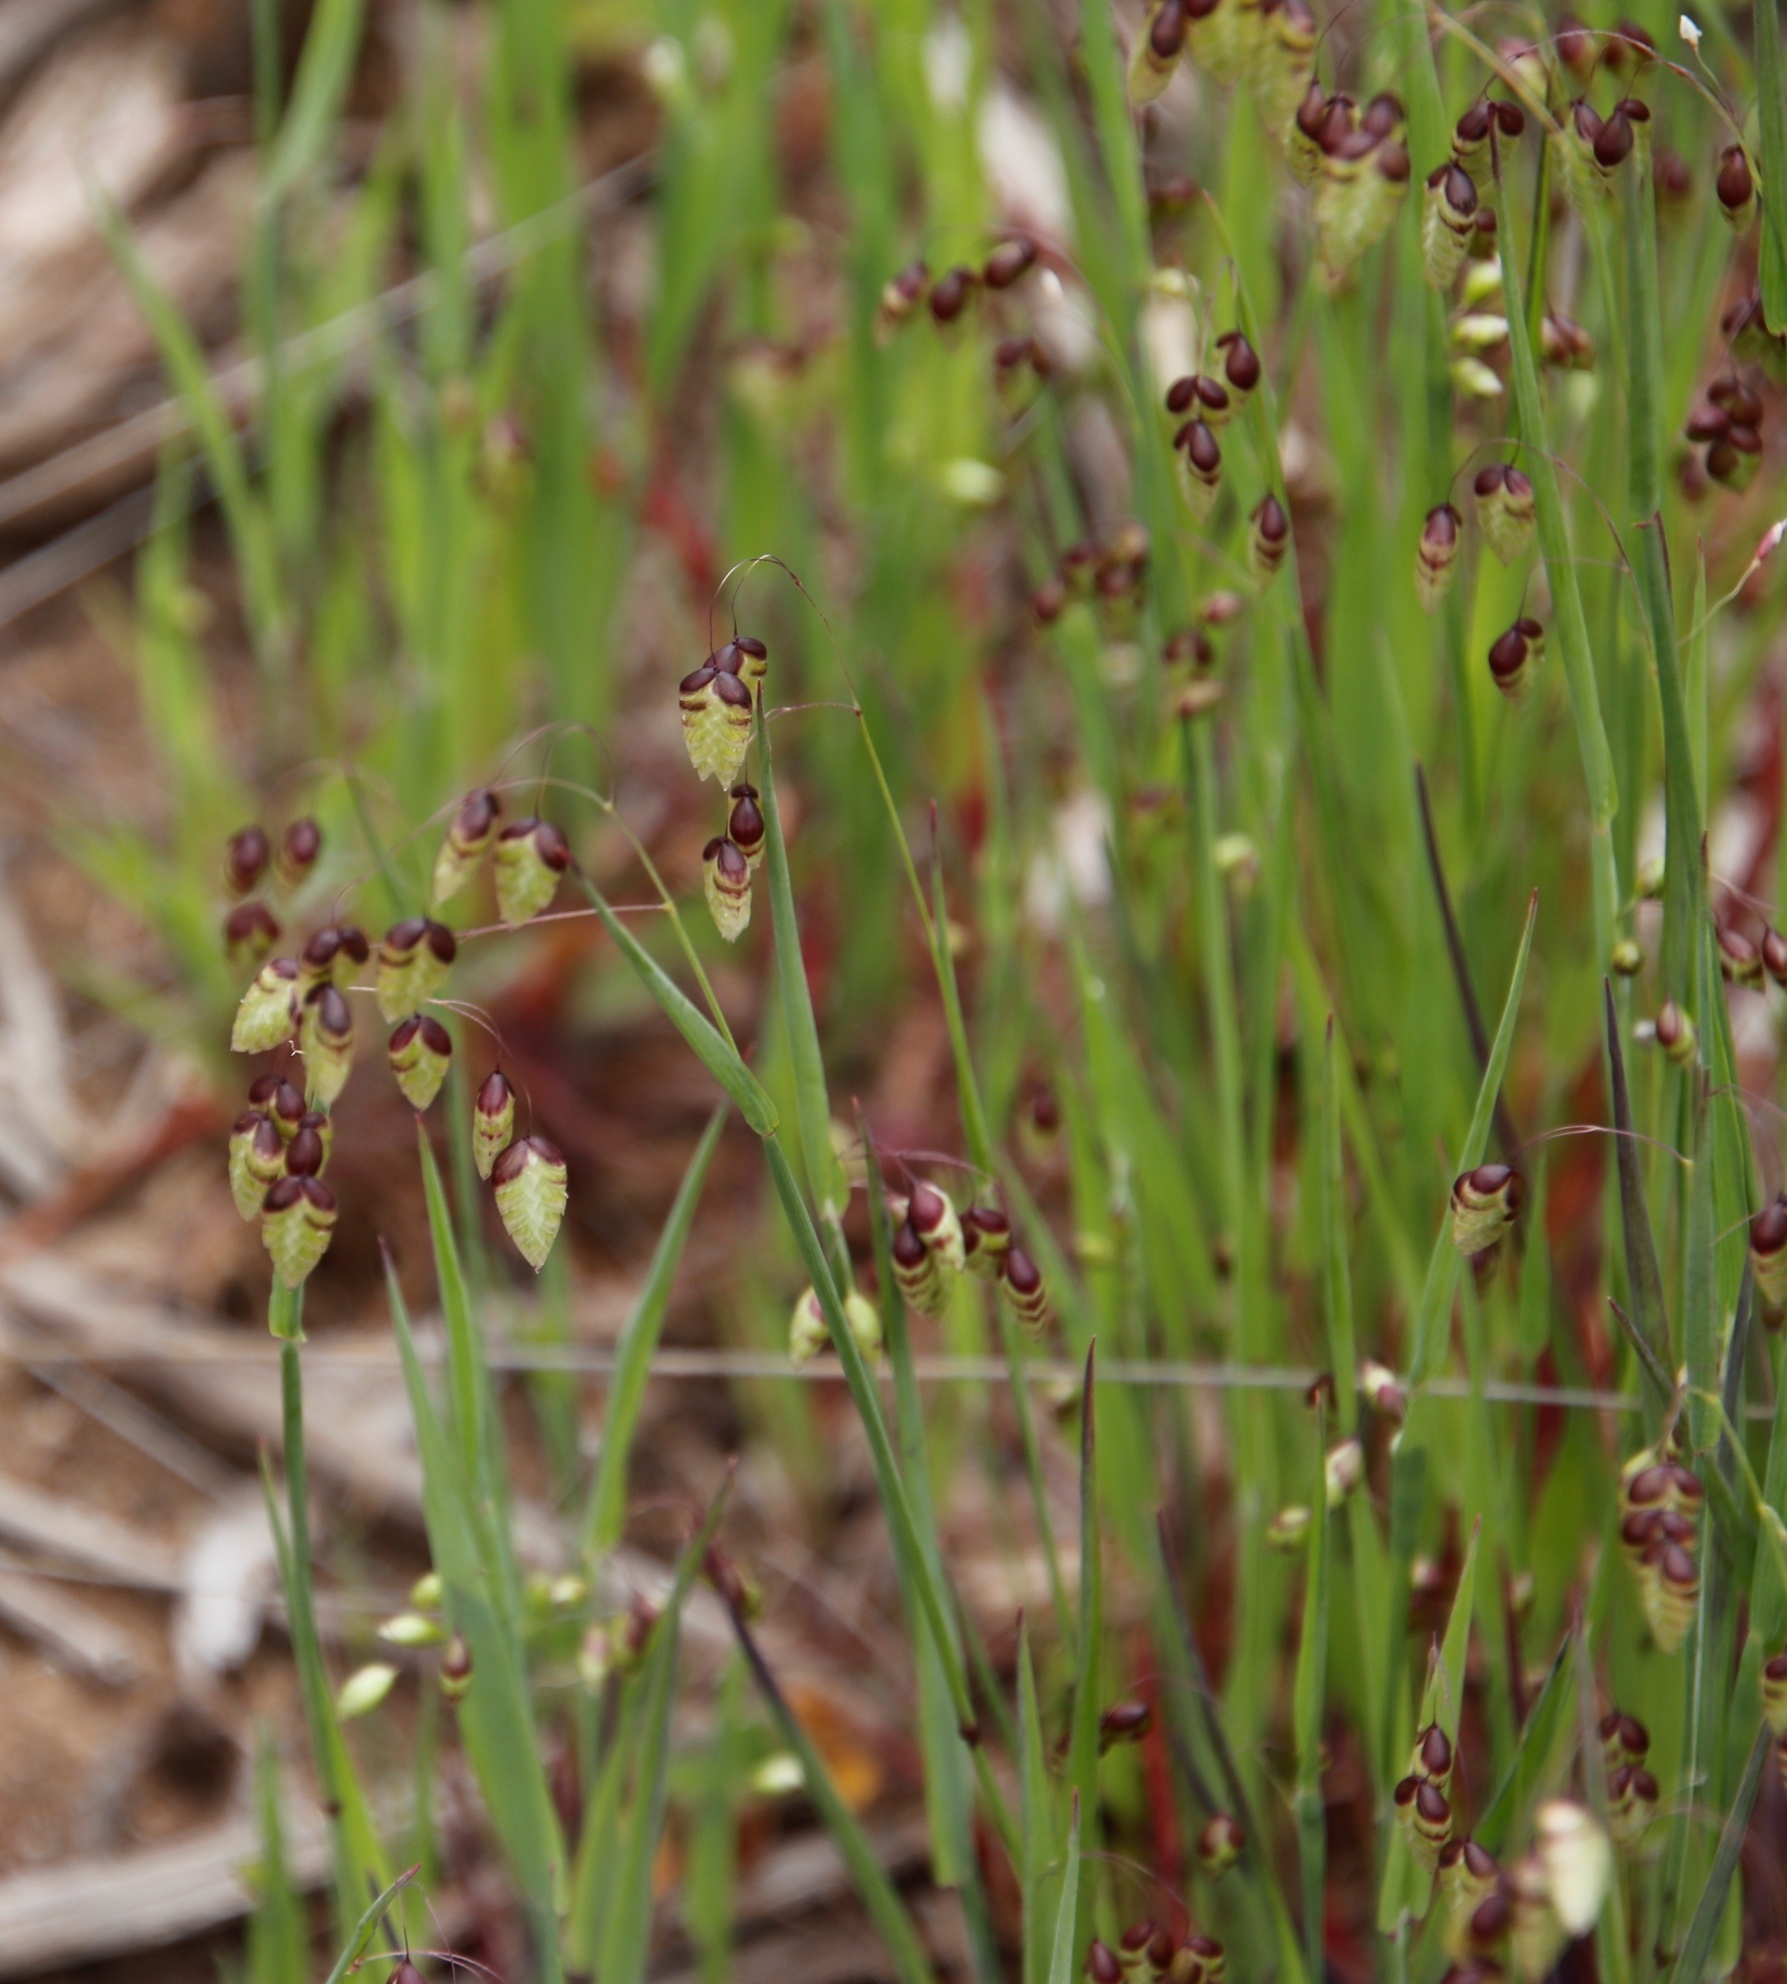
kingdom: Plantae
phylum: Tracheophyta
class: Liliopsida
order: Poales
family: Poaceae
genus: Briza
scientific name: Briza maxima
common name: Big quakinggrass
